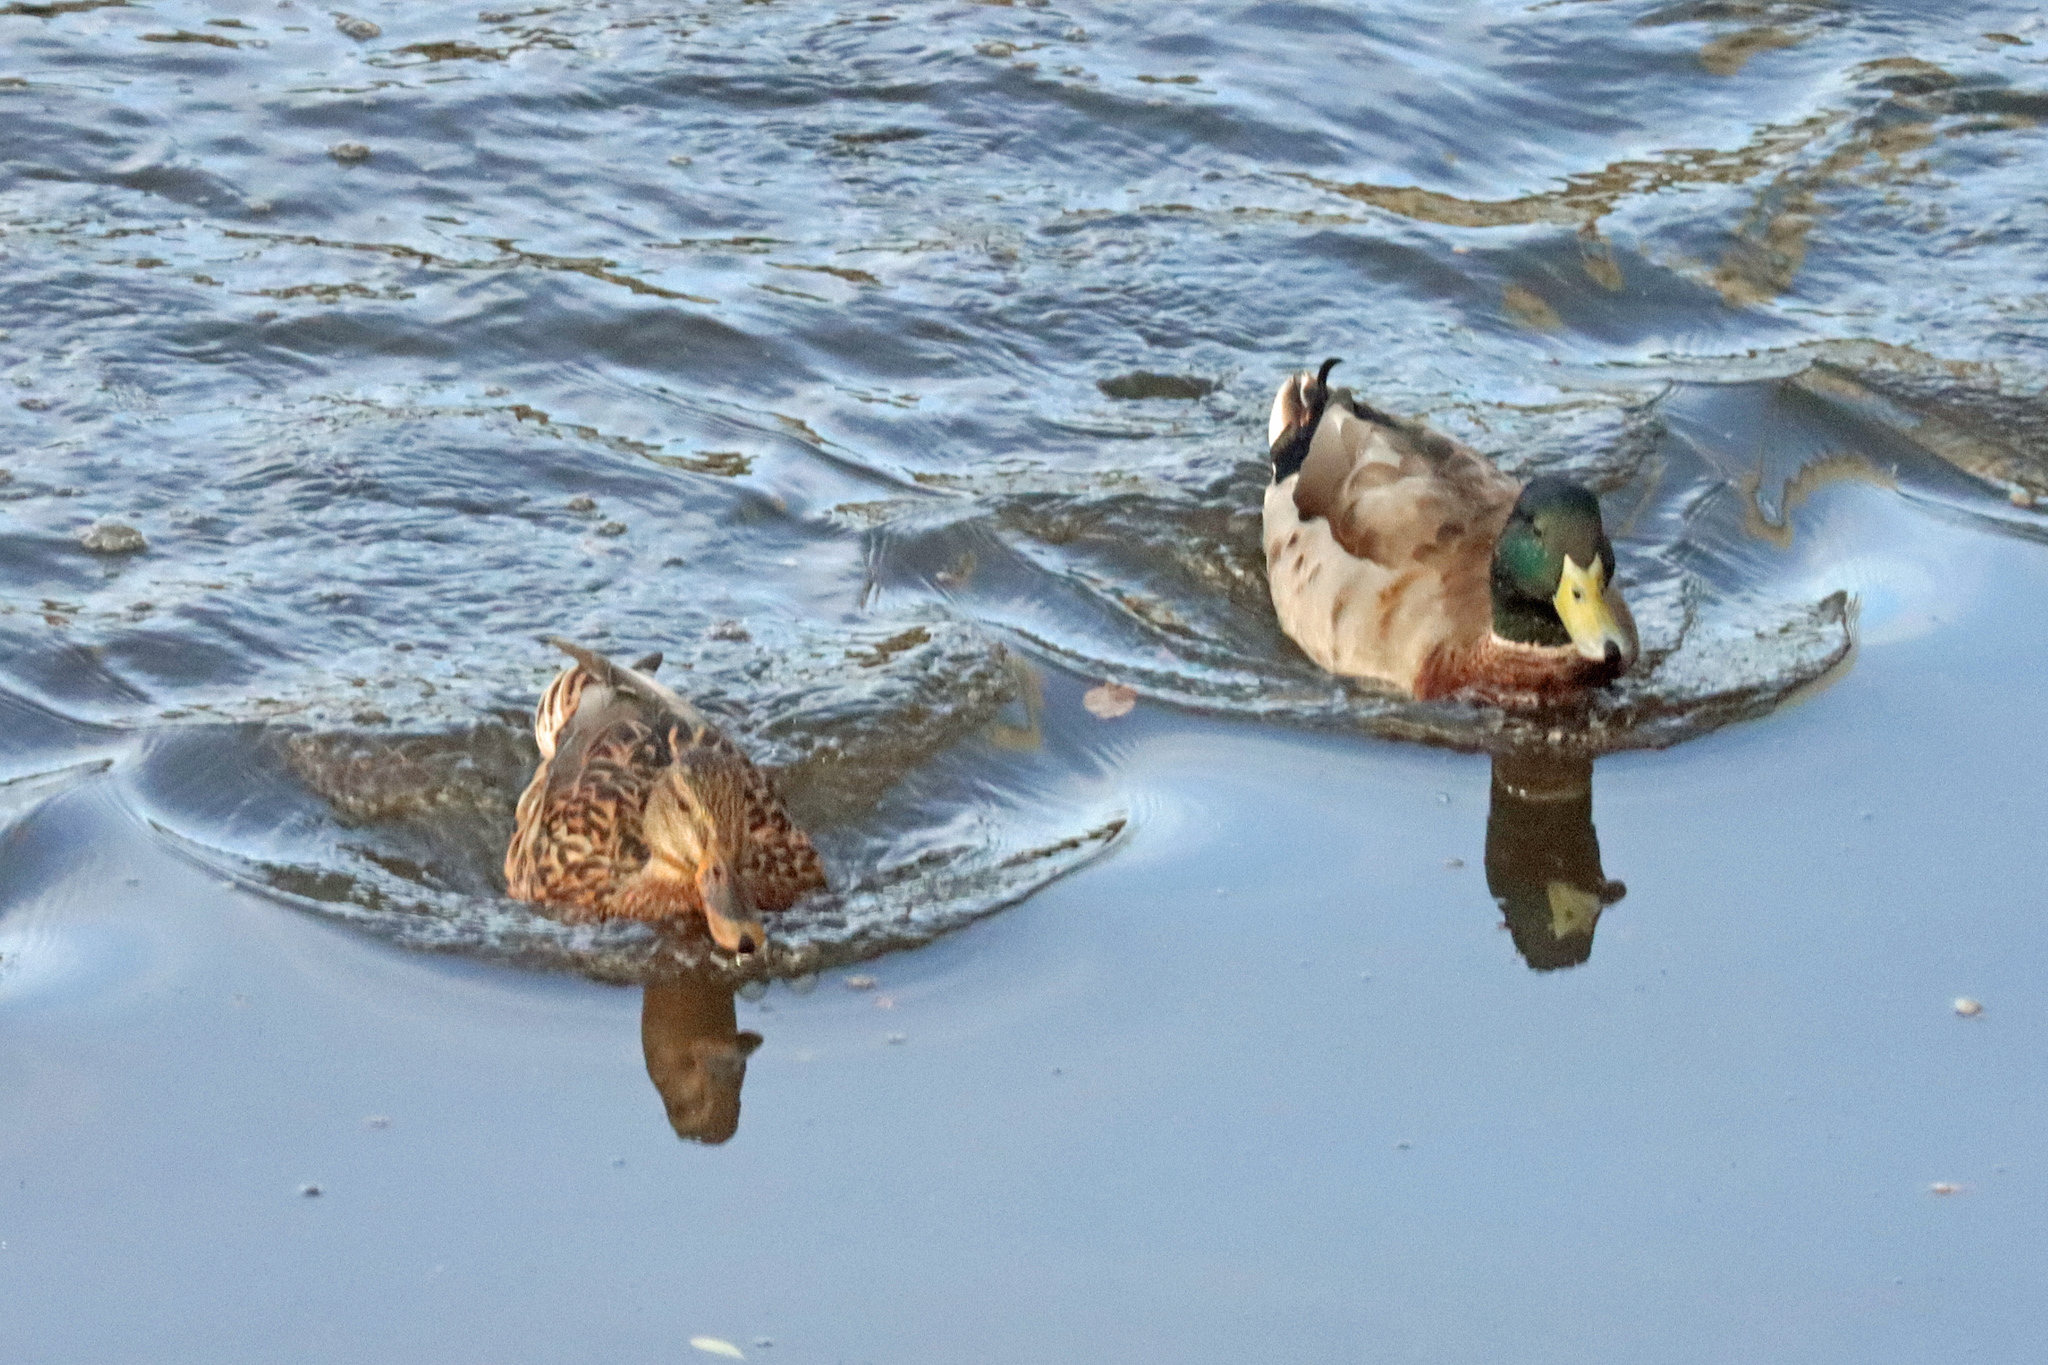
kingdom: Animalia
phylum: Chordata
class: Aves
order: Anseriformes
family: Anatidae
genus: Anas
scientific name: Anas platyrhynchos
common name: Mallard
